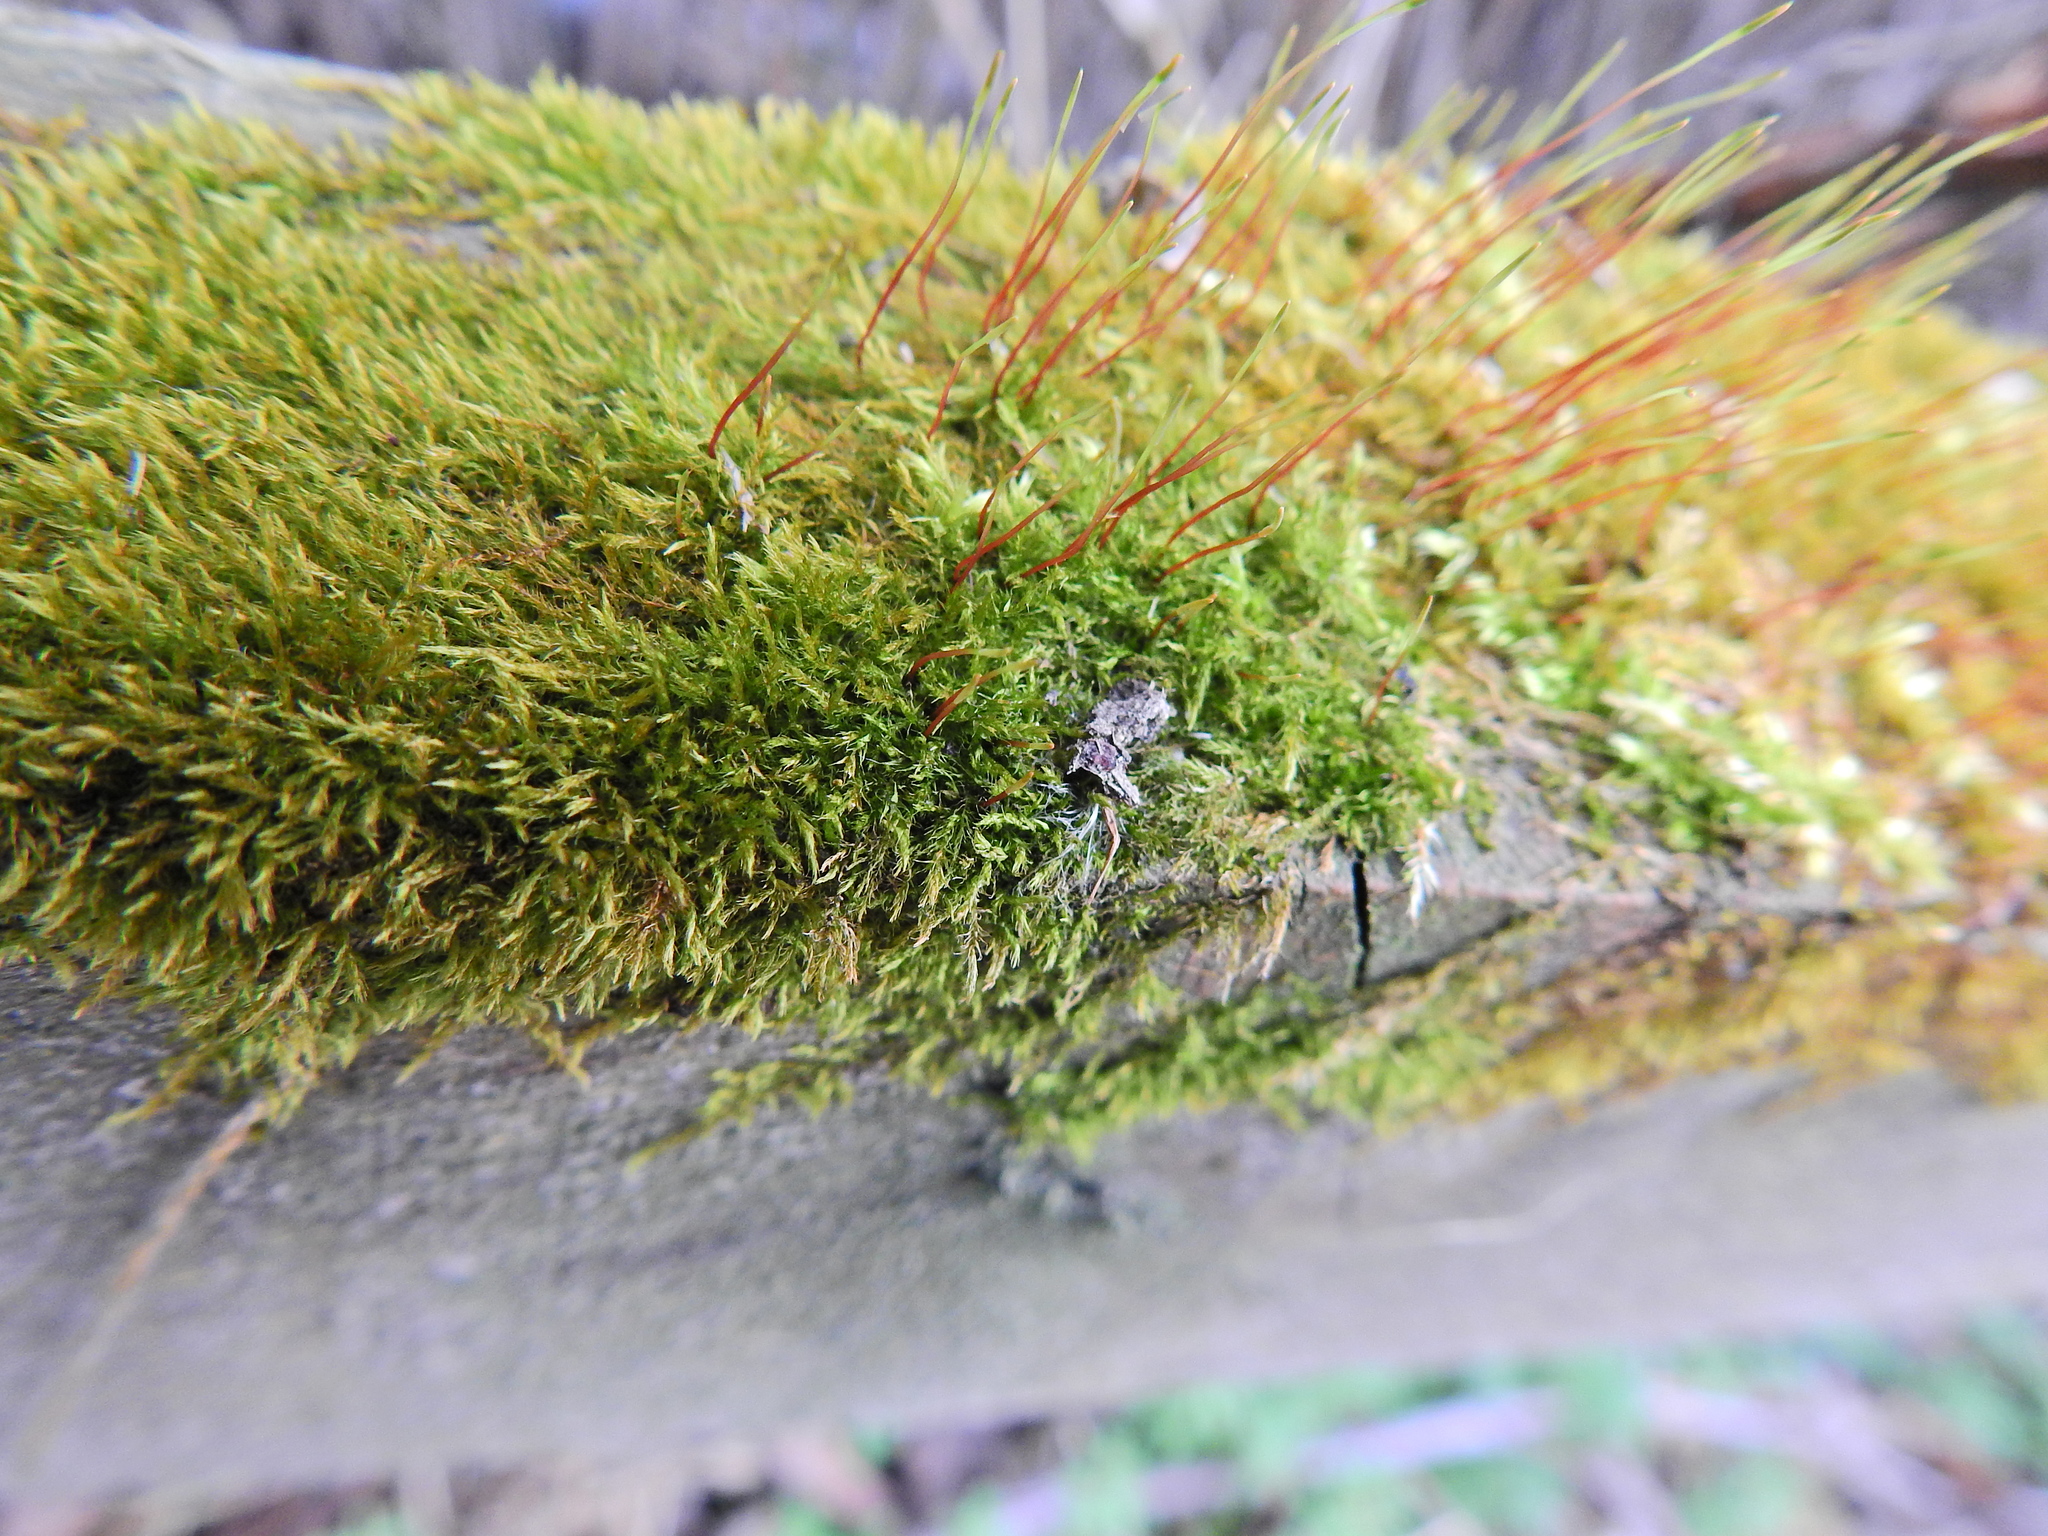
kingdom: Plantae
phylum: Bryophyta
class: Bryopsida
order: Hypnales
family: Amblystegiaceae
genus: Amblystegium
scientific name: Amblystegium serpens
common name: Jurkatzka's feather moss
